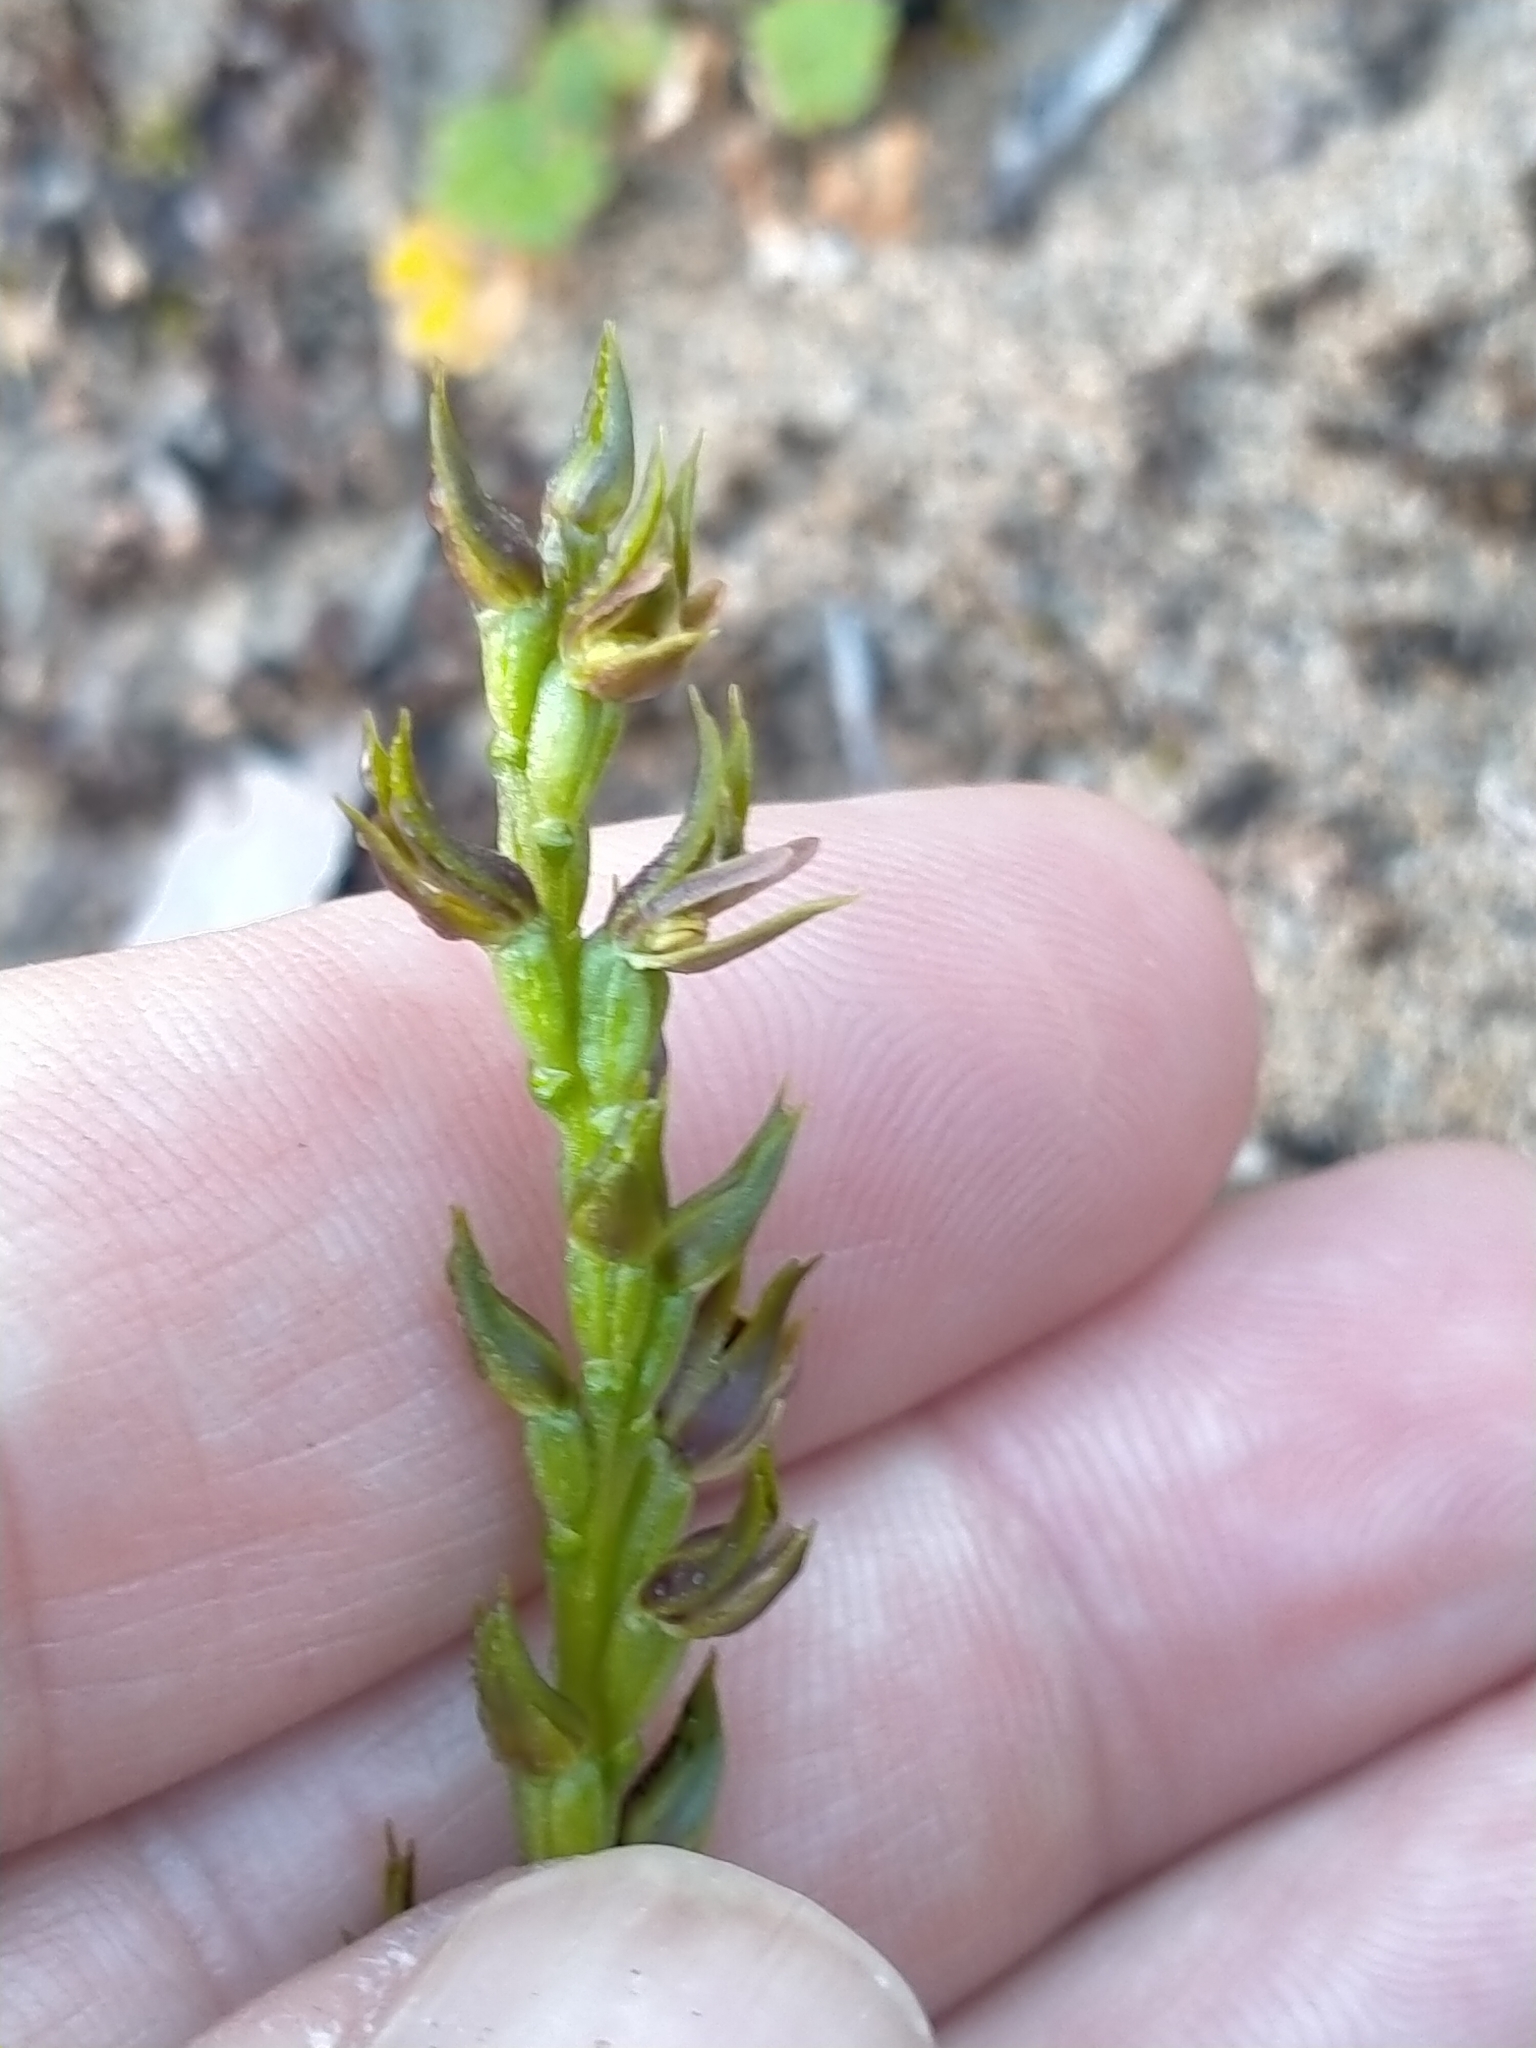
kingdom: Plantae
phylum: Tracheophyta
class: Liliopsida
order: Asparagales
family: Orchidaceae
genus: Prasophyllum
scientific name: Prasophyllum colensoi
